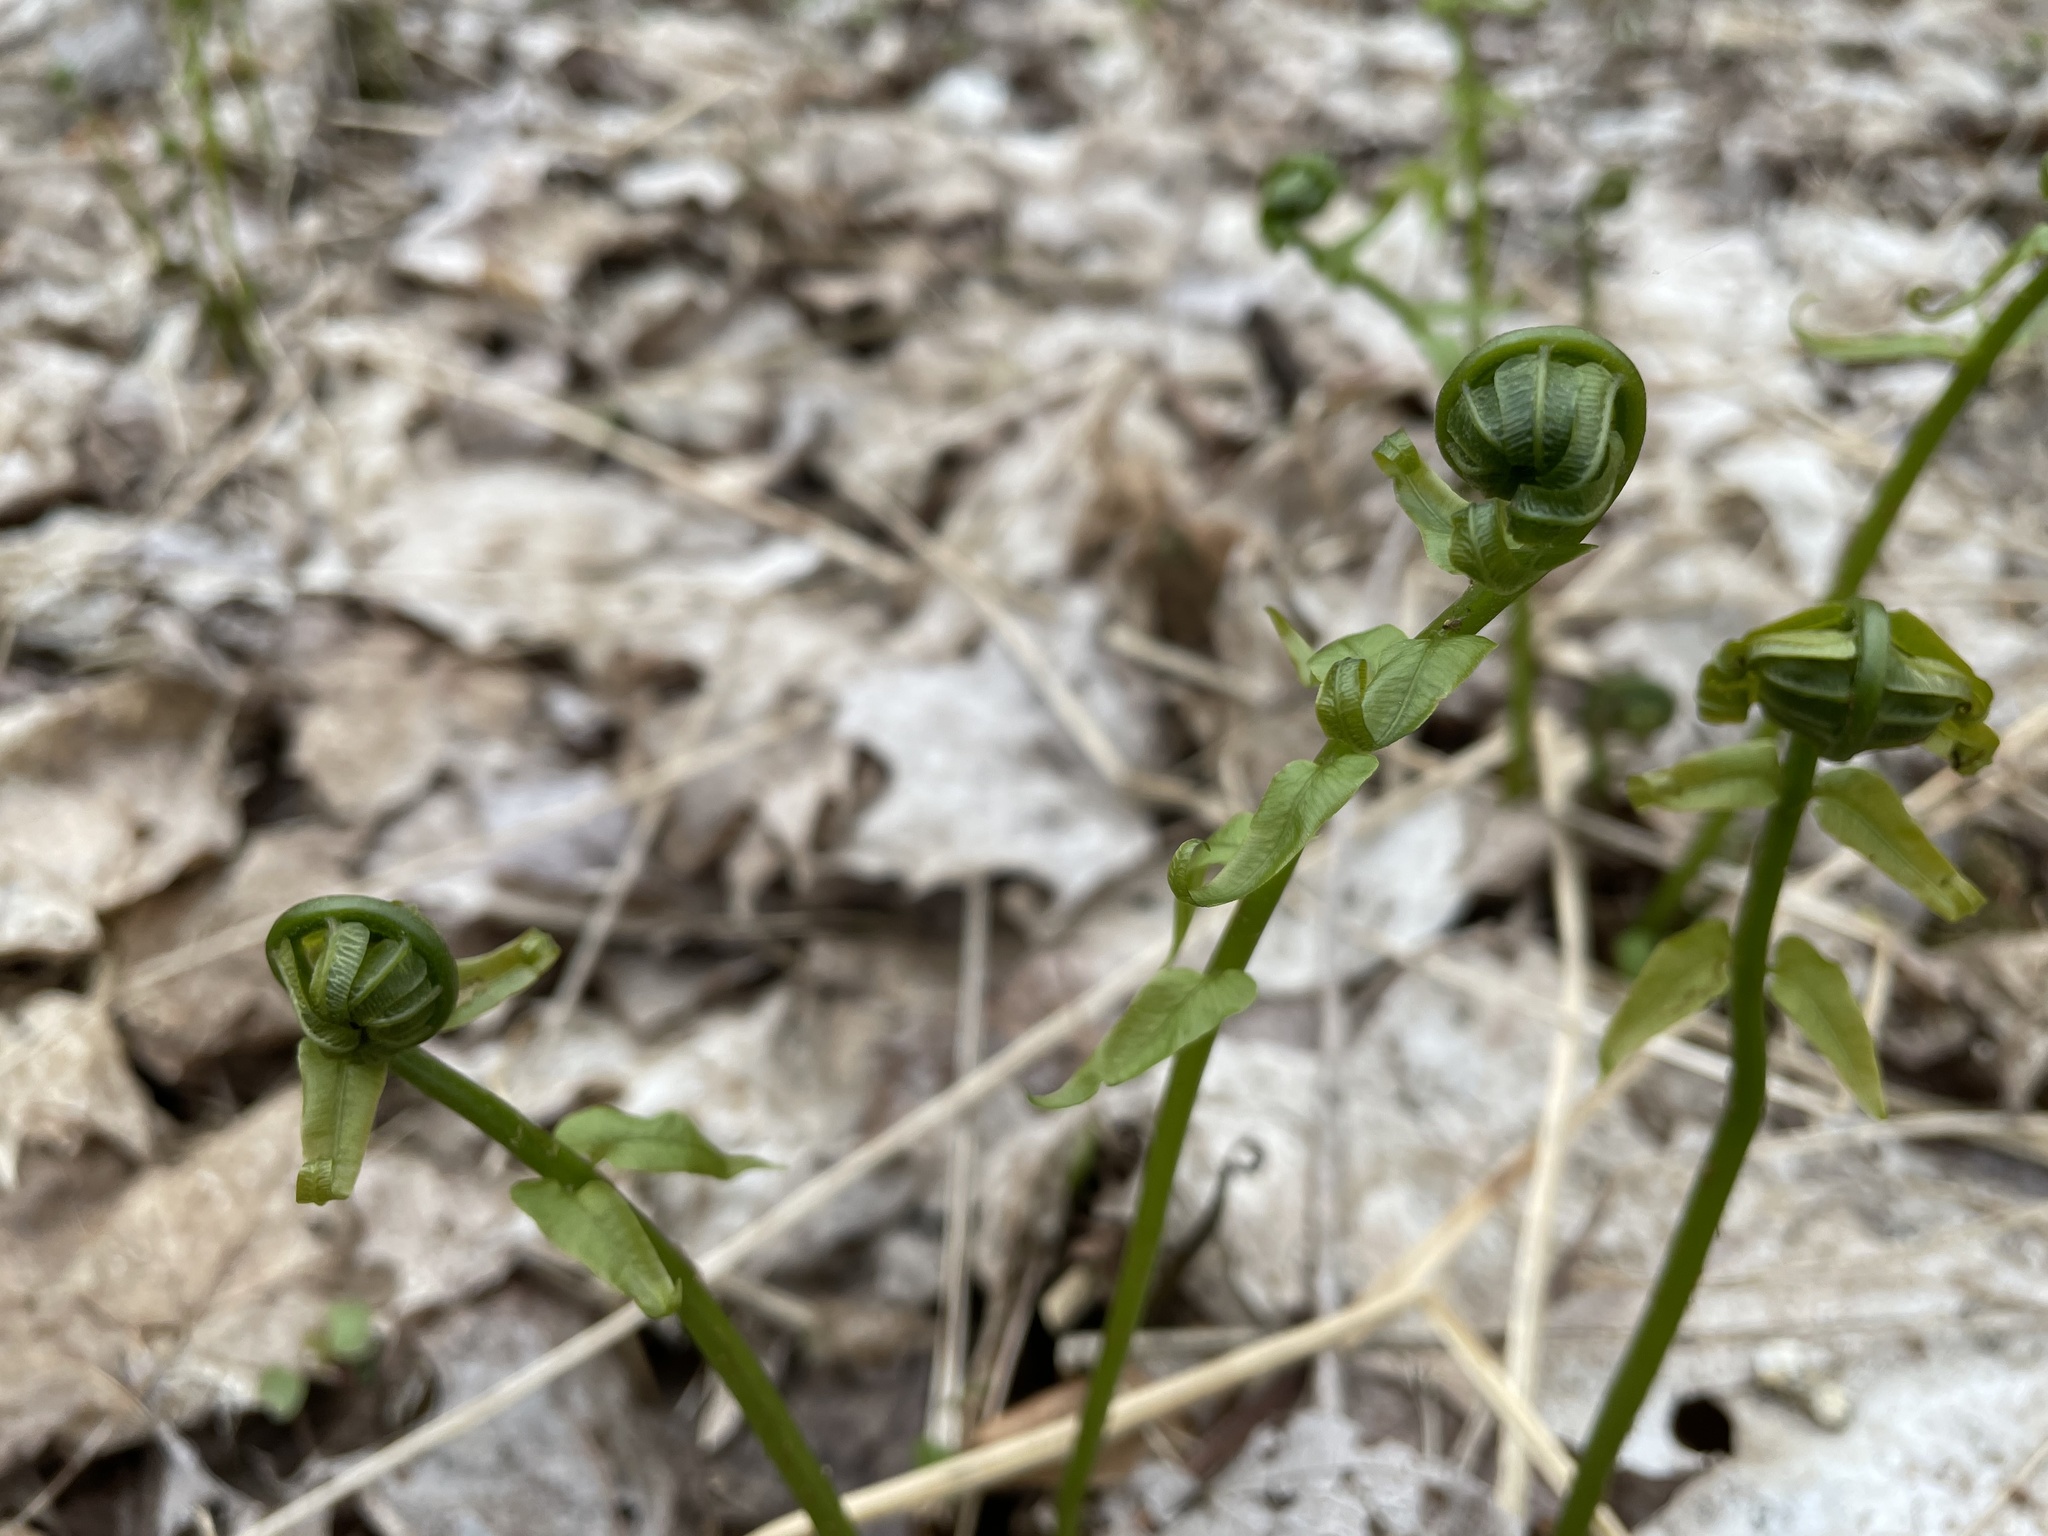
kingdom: Plantae
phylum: Tracheophyta
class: Polypodiopsida
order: Polypodiales
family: Diplaziopsidaceae
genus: Homalosorus
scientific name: Homalosorus pycnocarpos
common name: Glade fern
